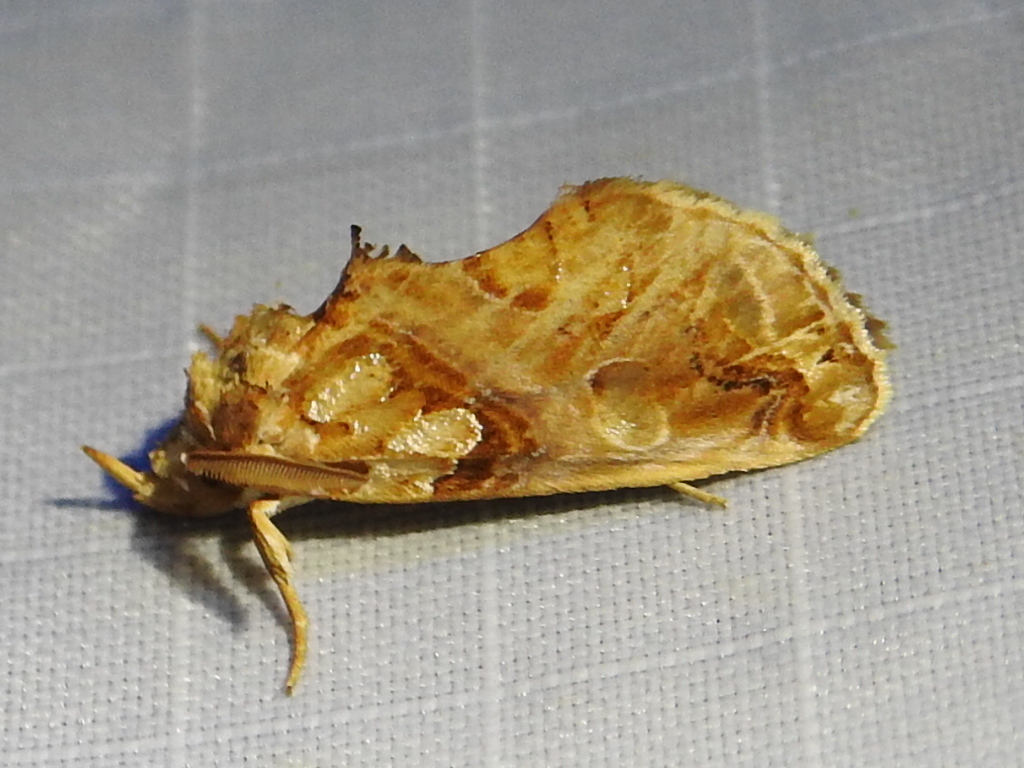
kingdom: Animalia
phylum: Arthropoda
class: Insecta
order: Lepidoptera
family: Erebidae
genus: Plusiodonta
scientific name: Plusiodonta compressipalpis
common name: Moonseed moth
